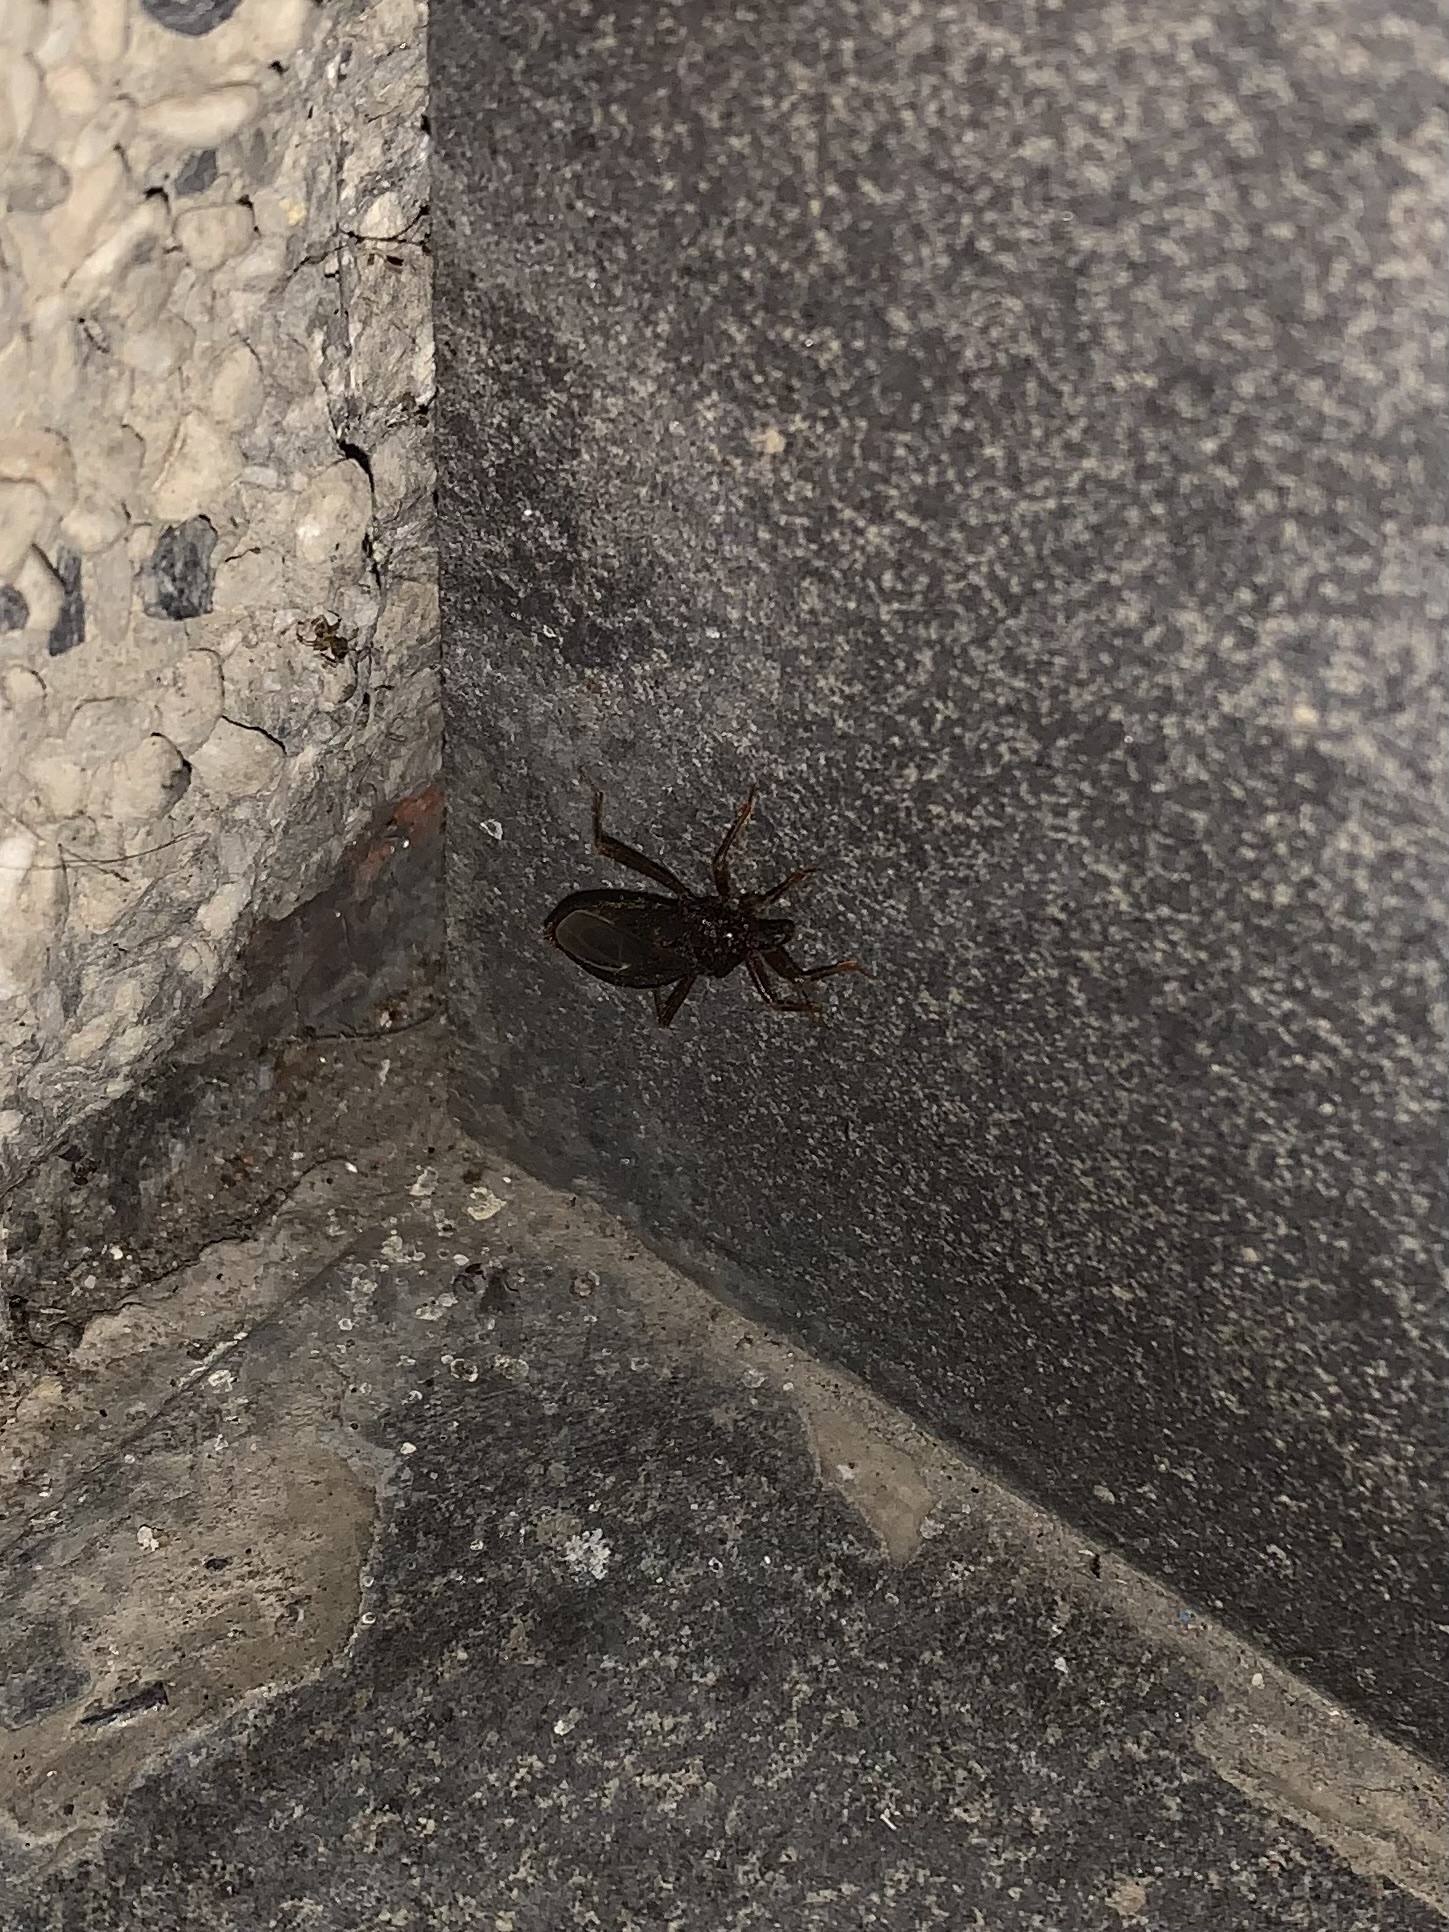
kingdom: Animalia
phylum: Arthropoda
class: Insecta
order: Hemiptera
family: Reduviidae
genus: Reduvius
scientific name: Reduvius personatus
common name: Masked hunter
